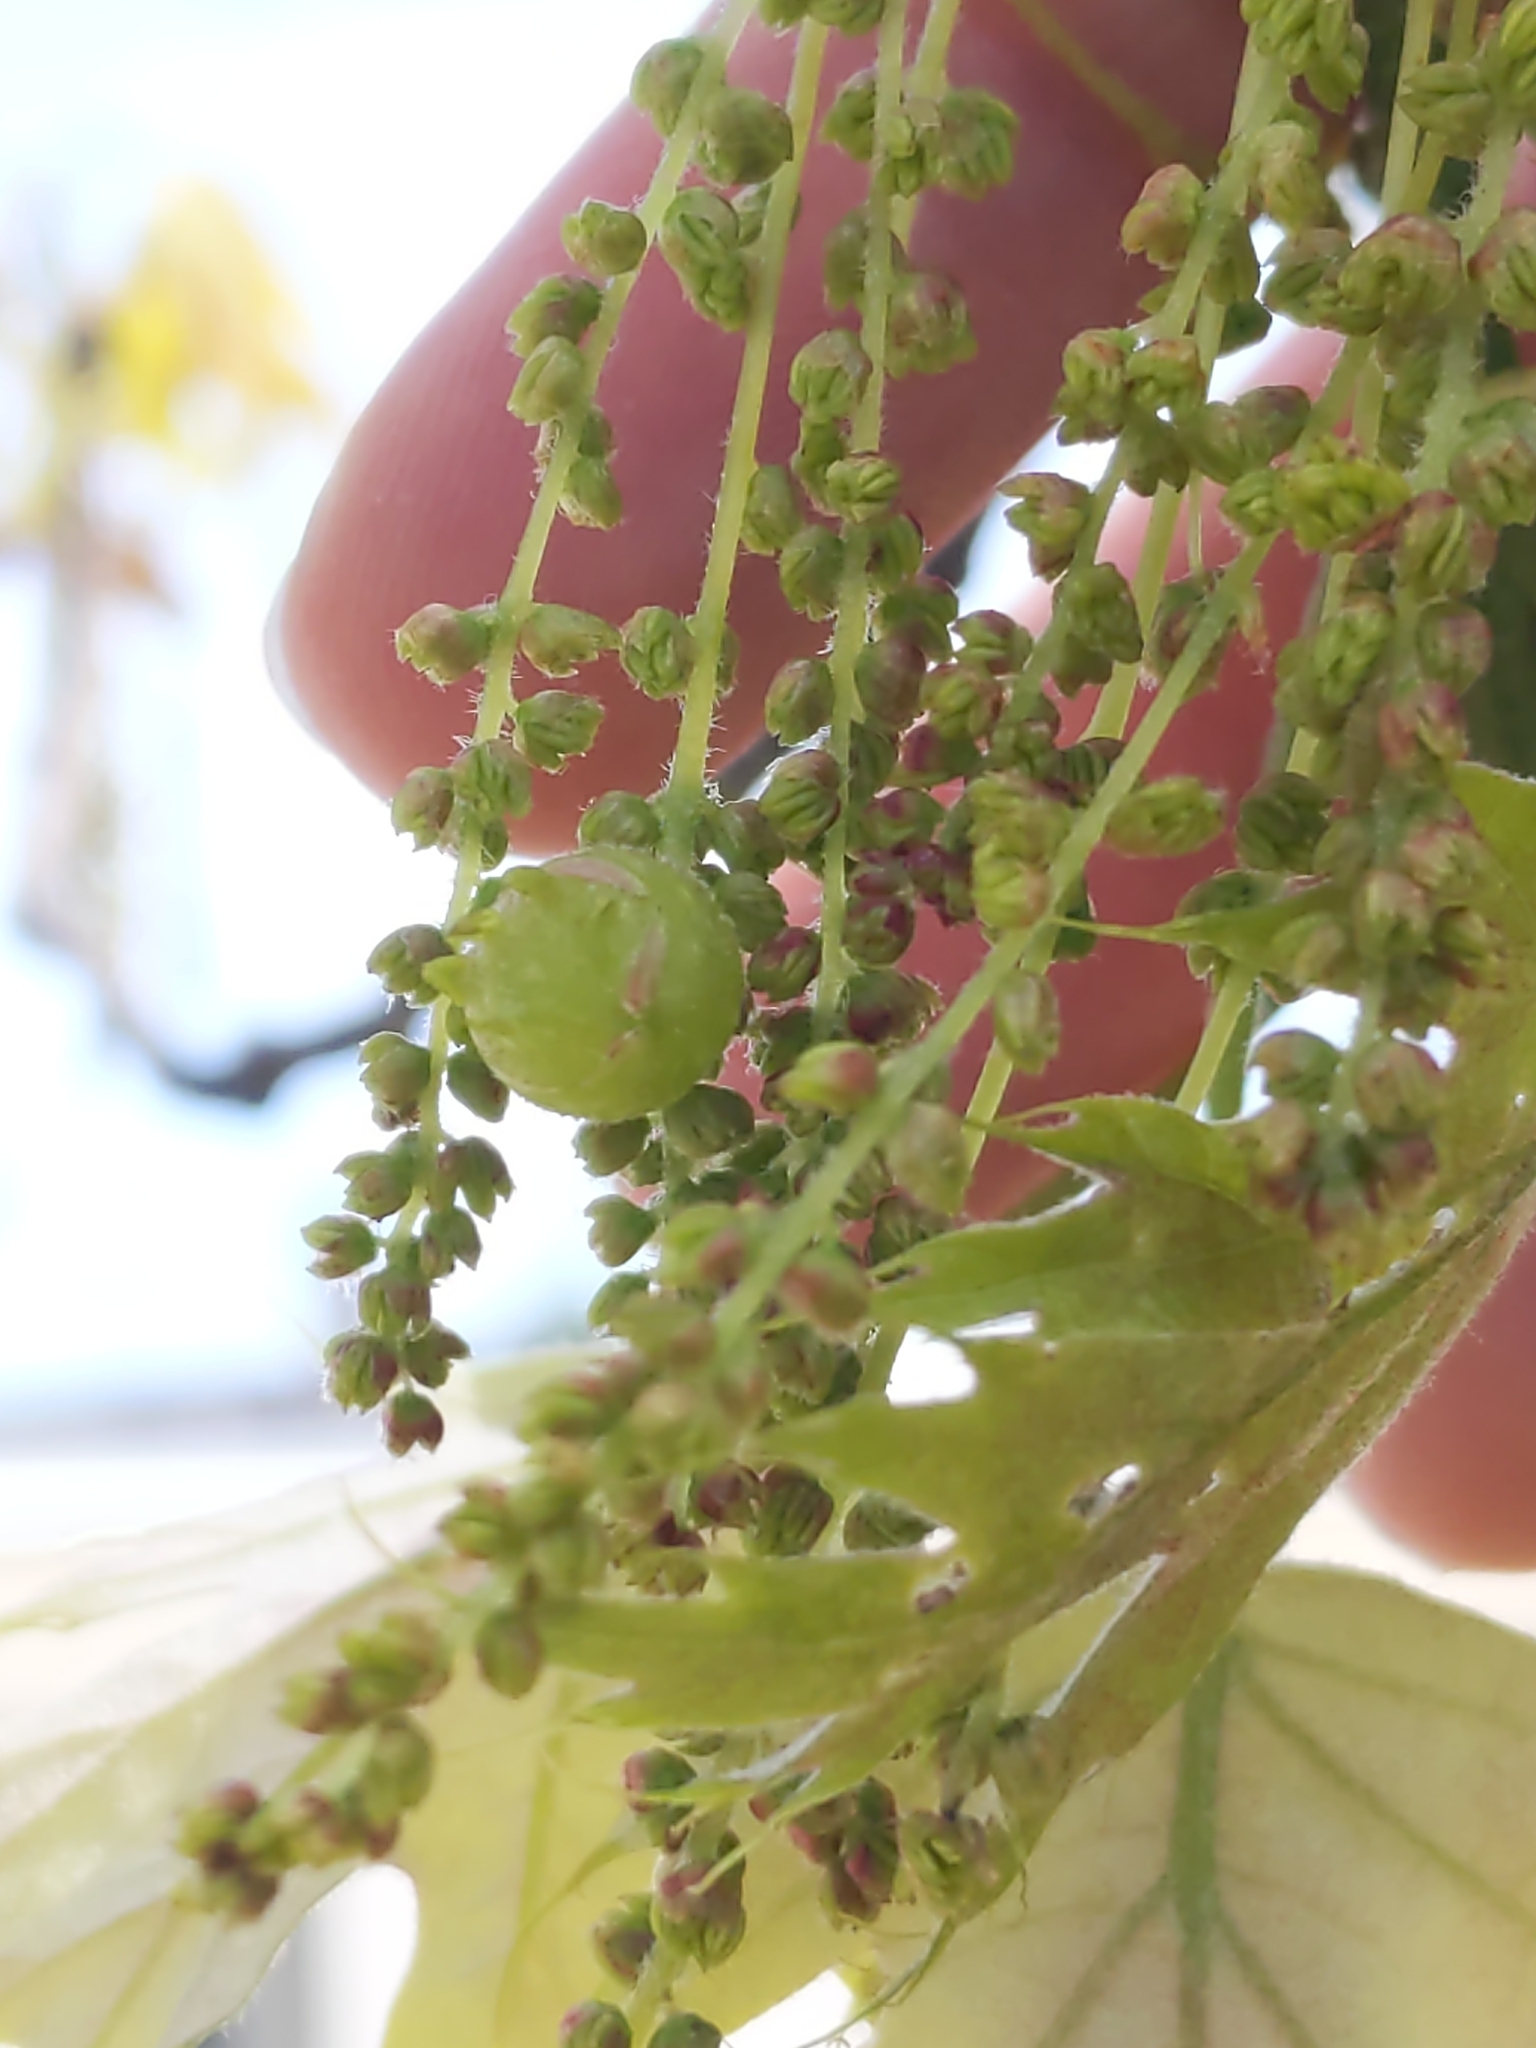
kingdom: Animalia
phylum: Arthropoda
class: Insecta
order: Hymenoptera
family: Cynipidae
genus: Dryocosmus
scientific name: Dryocosmus quercuspalustris
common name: Succulent oak gall wasp
